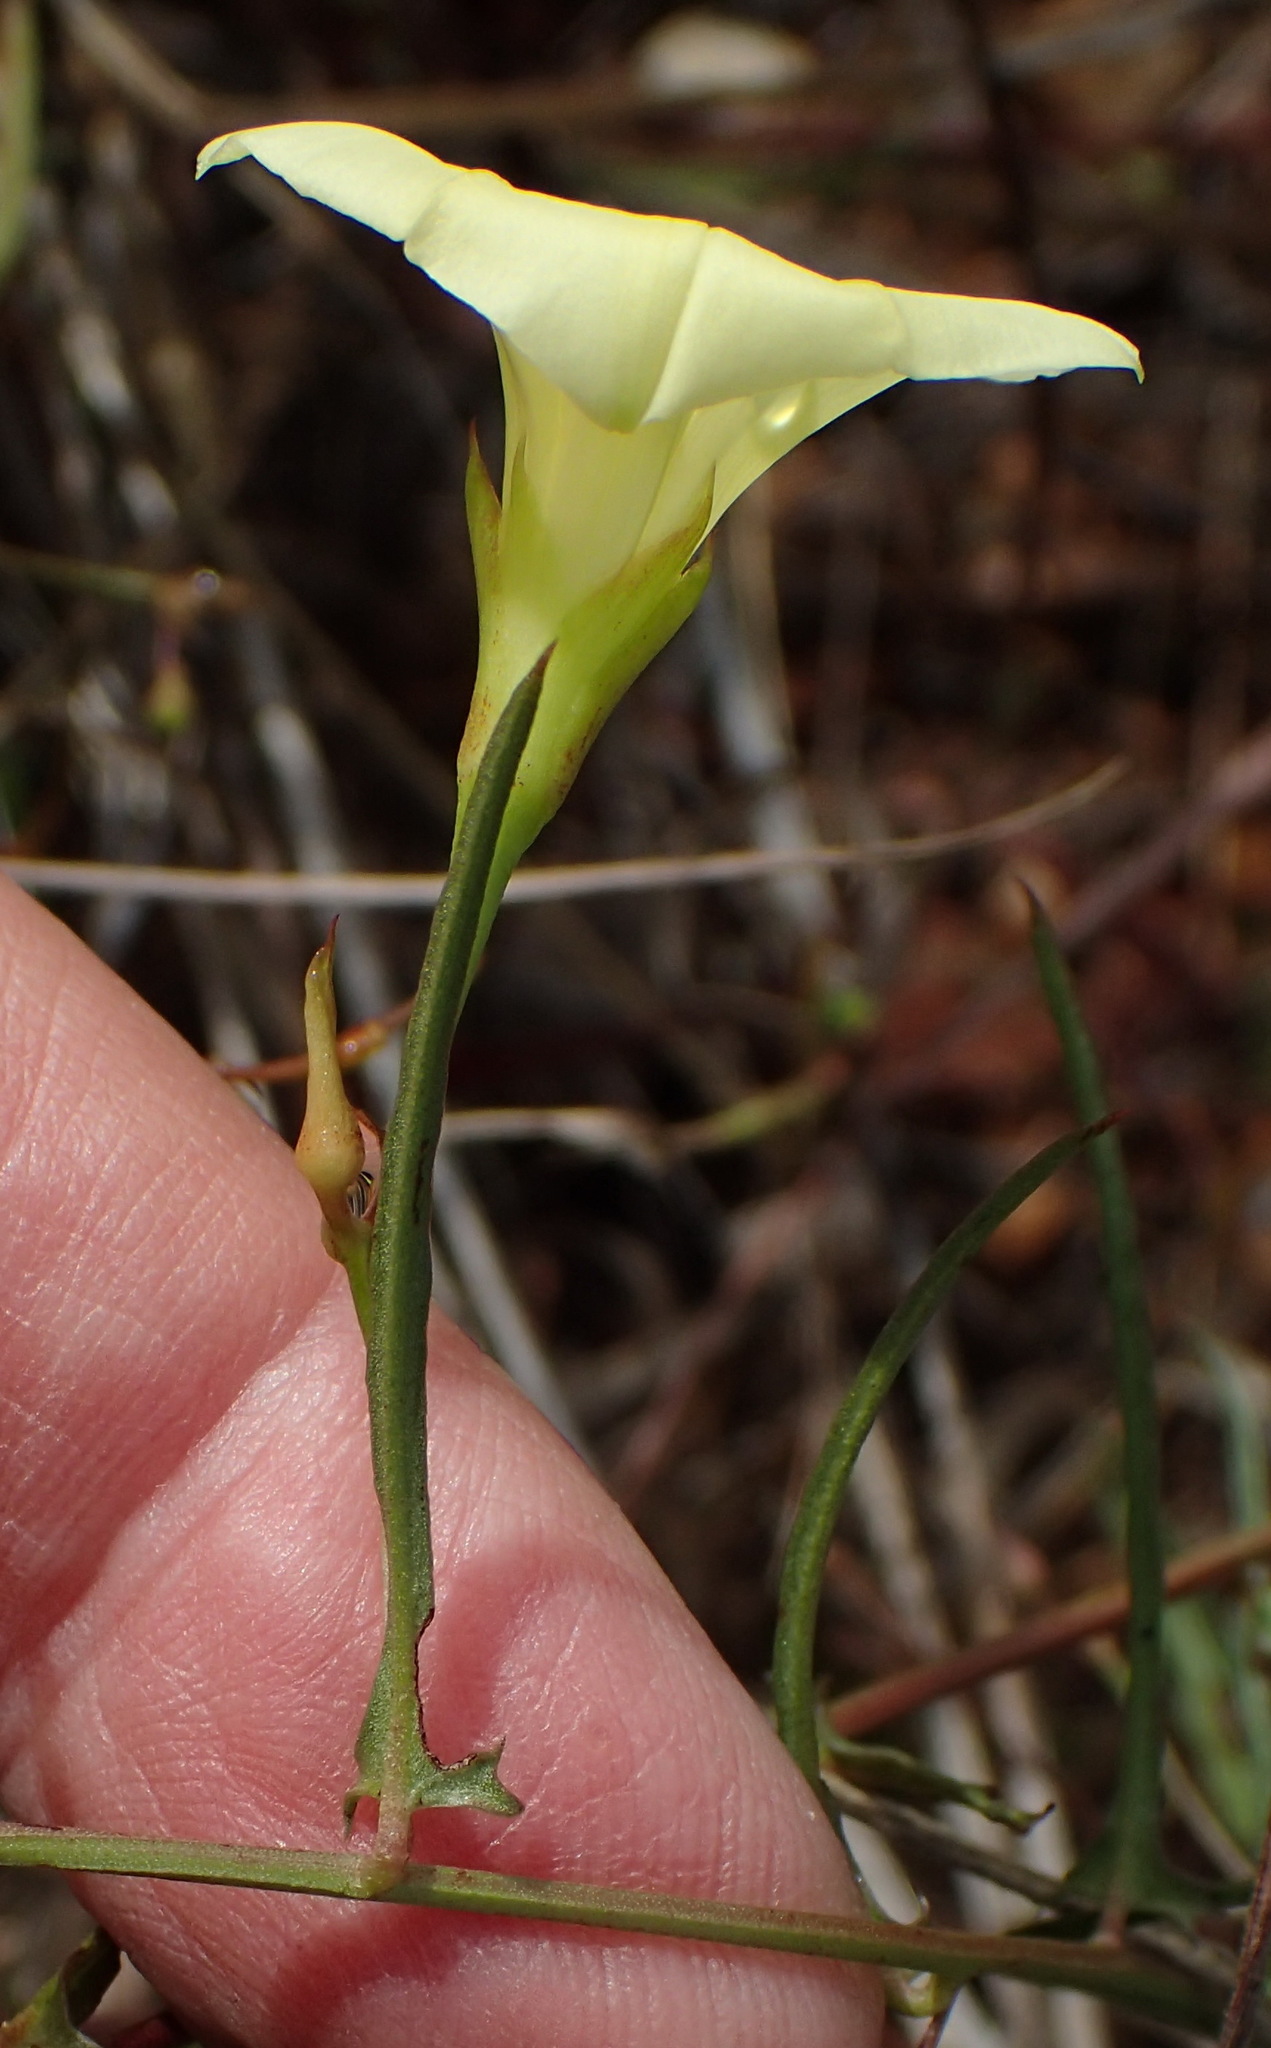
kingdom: Plantae
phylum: Tracheophyta
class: Magnoliopsida
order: Solanales
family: Convolvulaceae
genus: Xenostegia
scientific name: Xenostegia tridentata
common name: African morningvine
